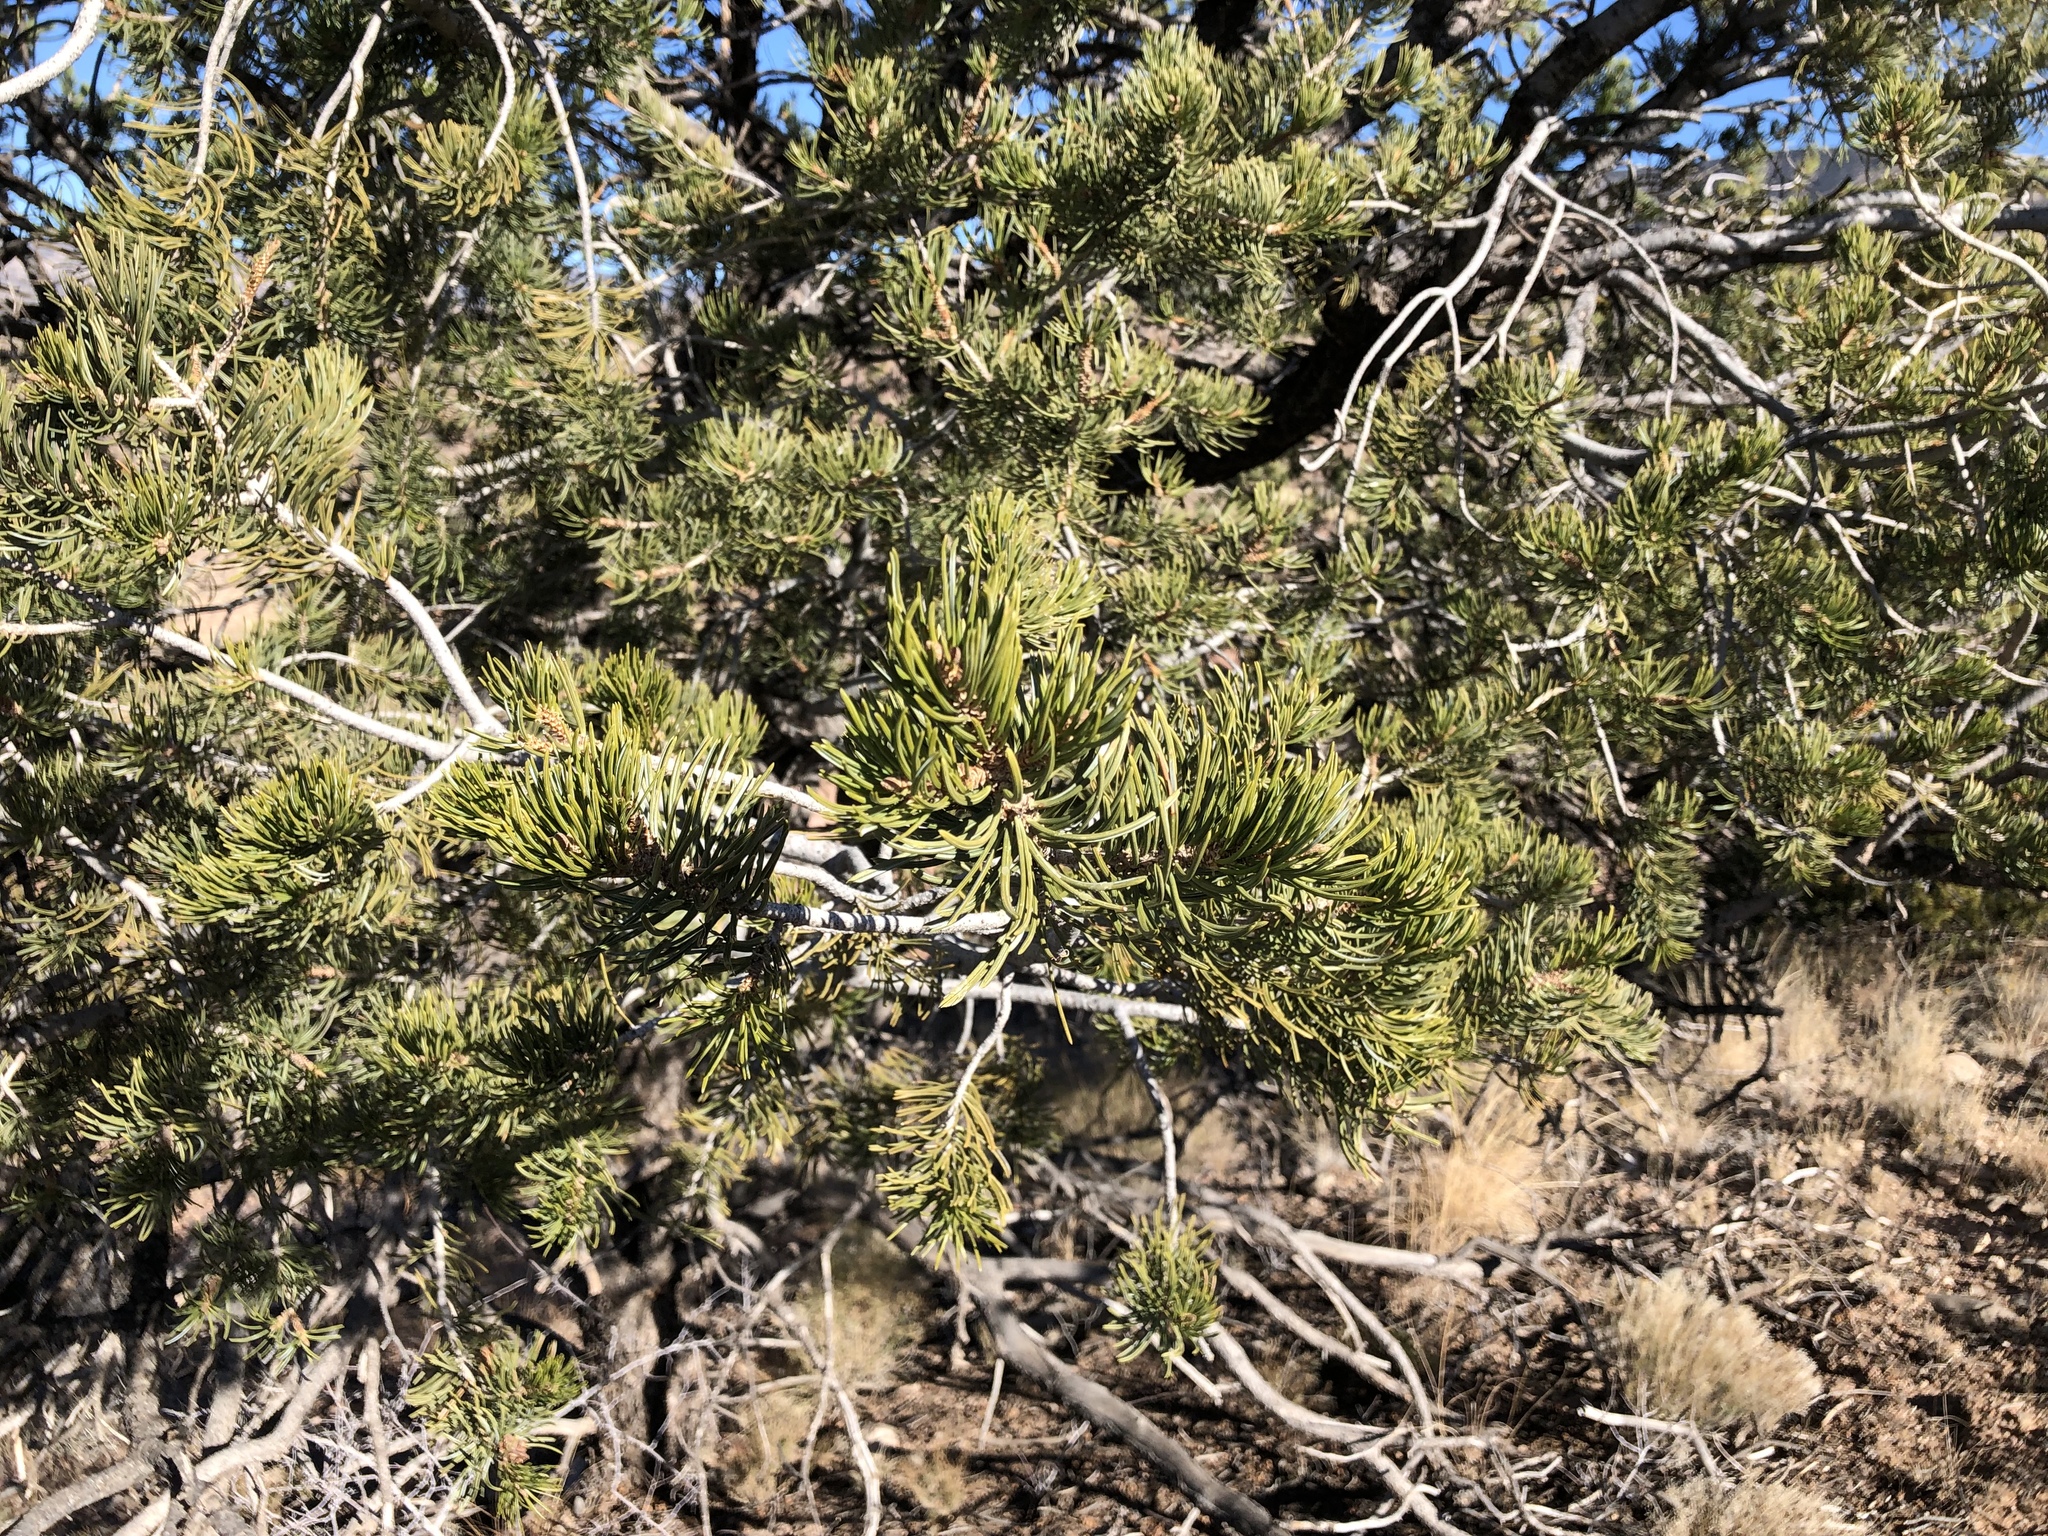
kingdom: Plantae
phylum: Tracheophyta
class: Pinopsida
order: Pinales
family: Pinaceae
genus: Pinus
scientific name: Pinus edulis
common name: Colorado pinyon
